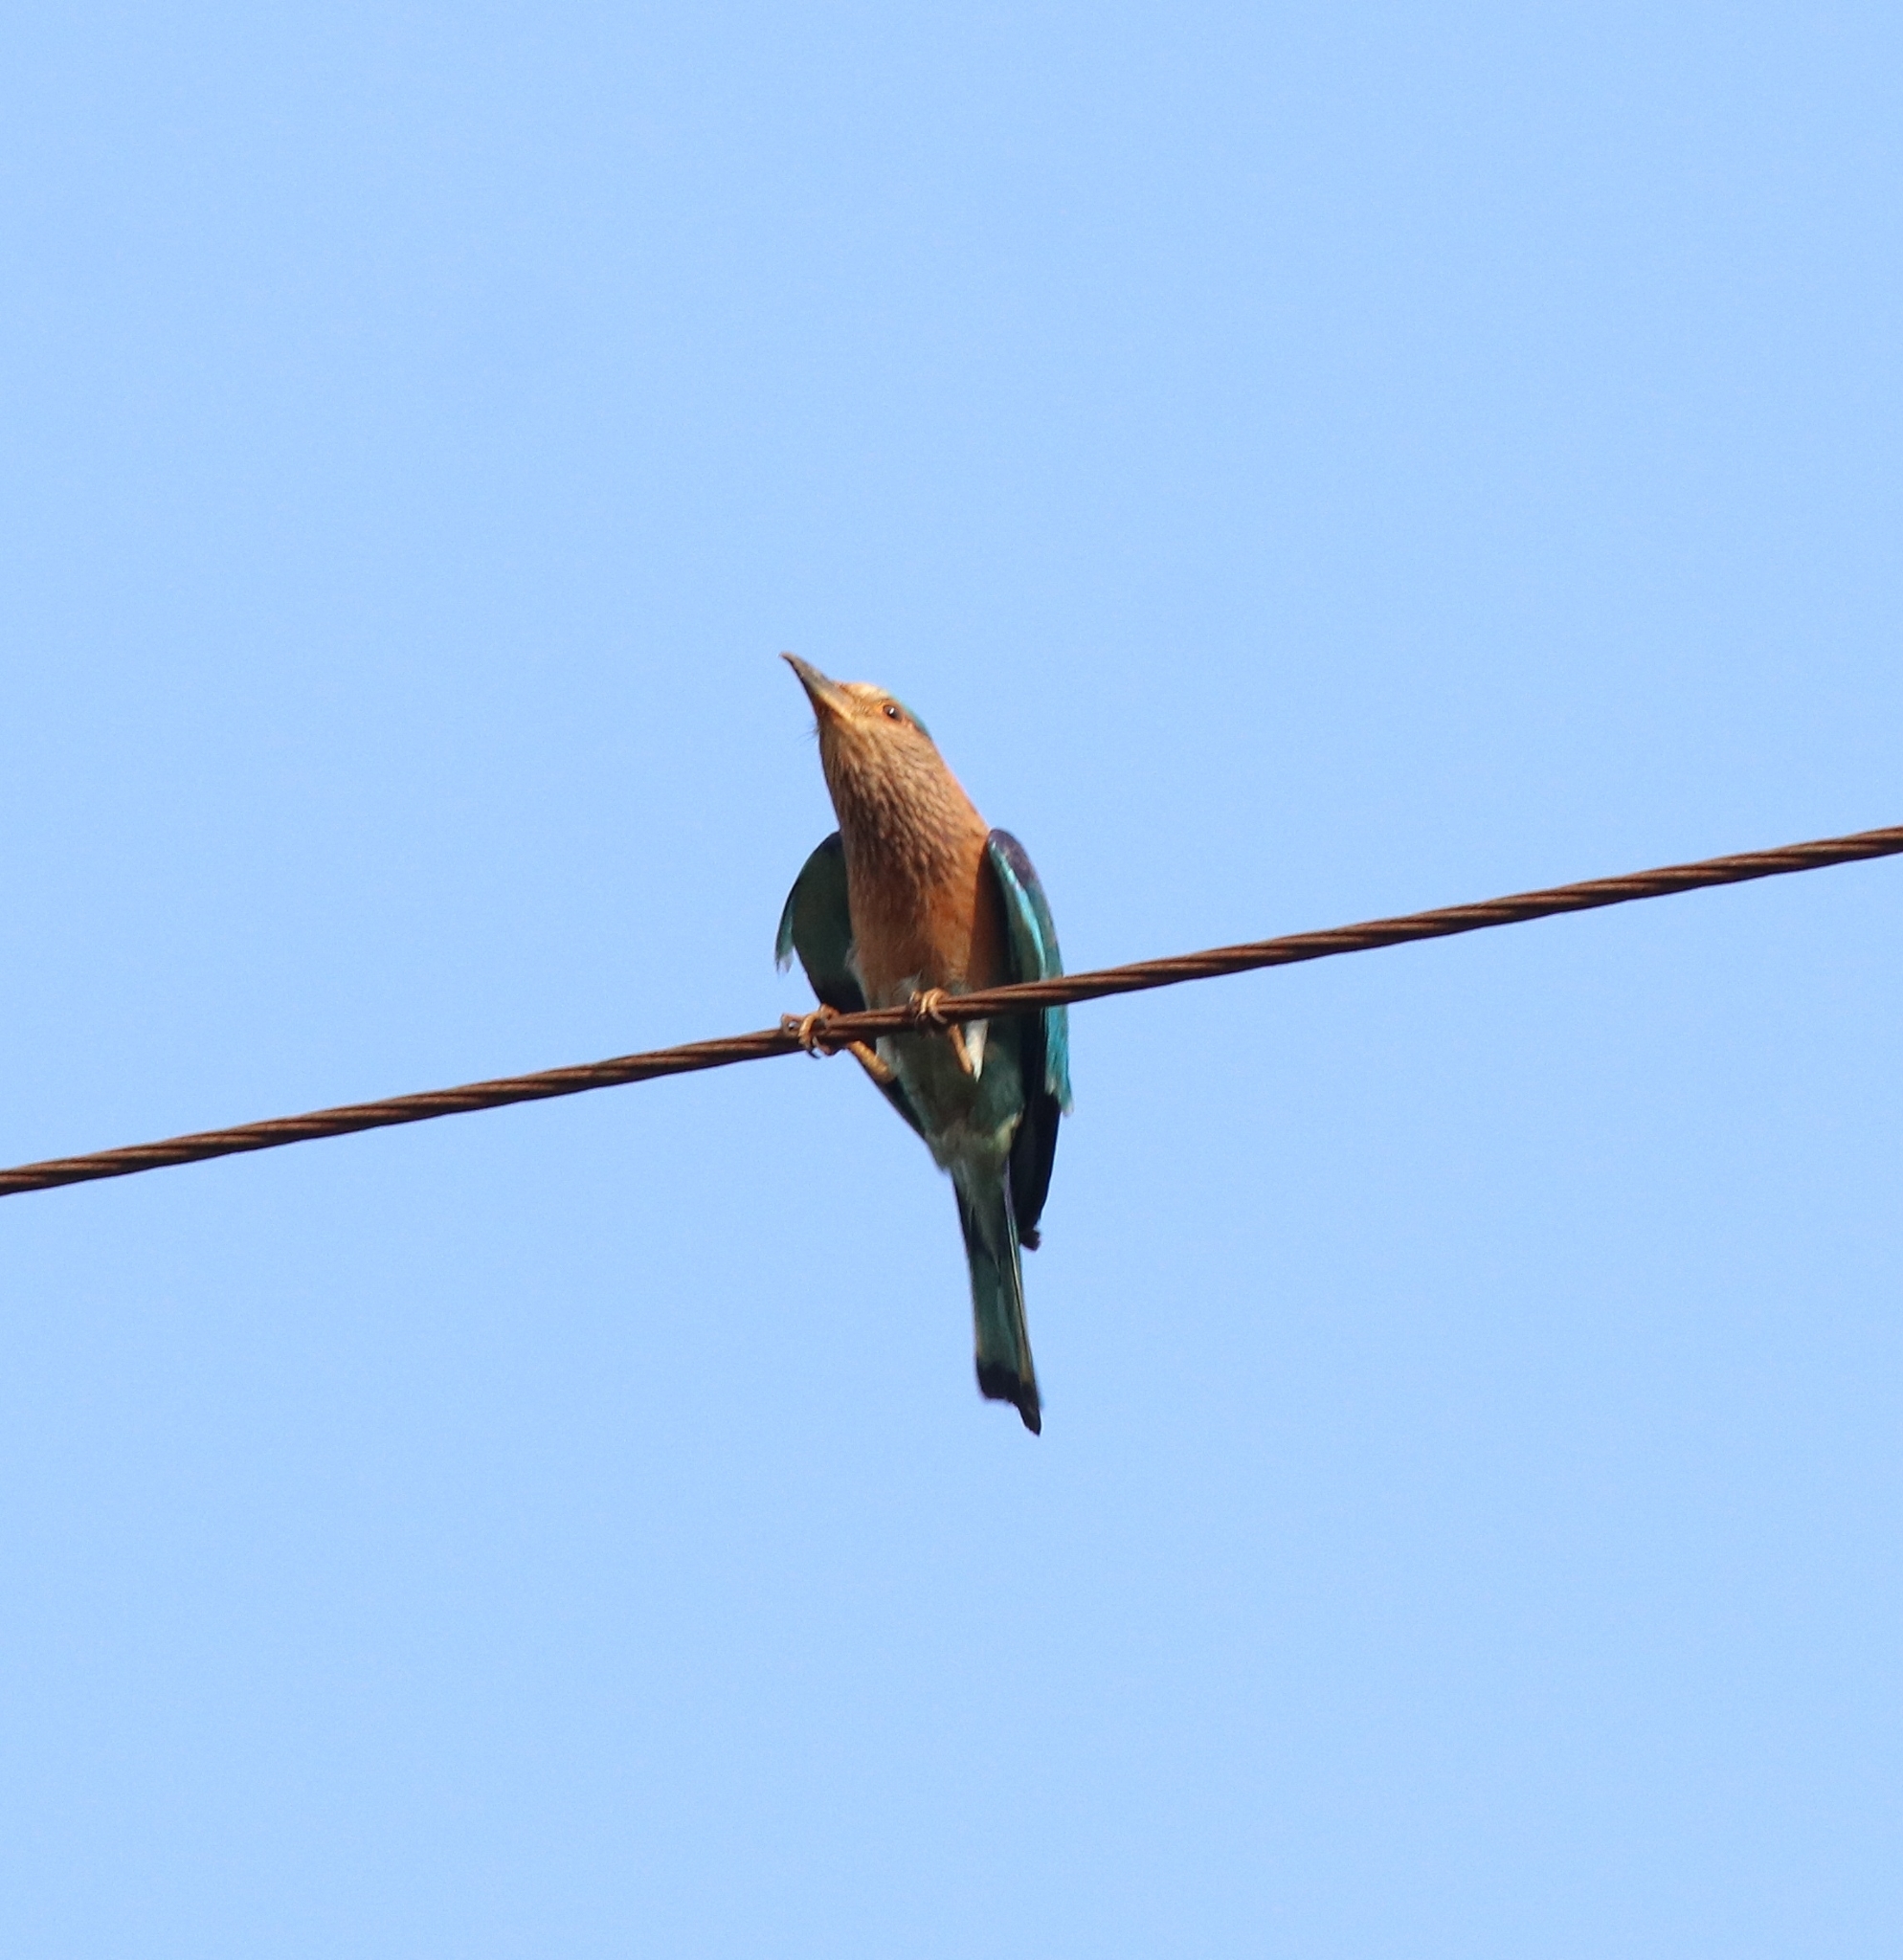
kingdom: Animalia
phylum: Chordata
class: Aves
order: Coraciiformes
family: Coraciidae
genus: Coracias
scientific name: Coracias benghalensis
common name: Indian roller
